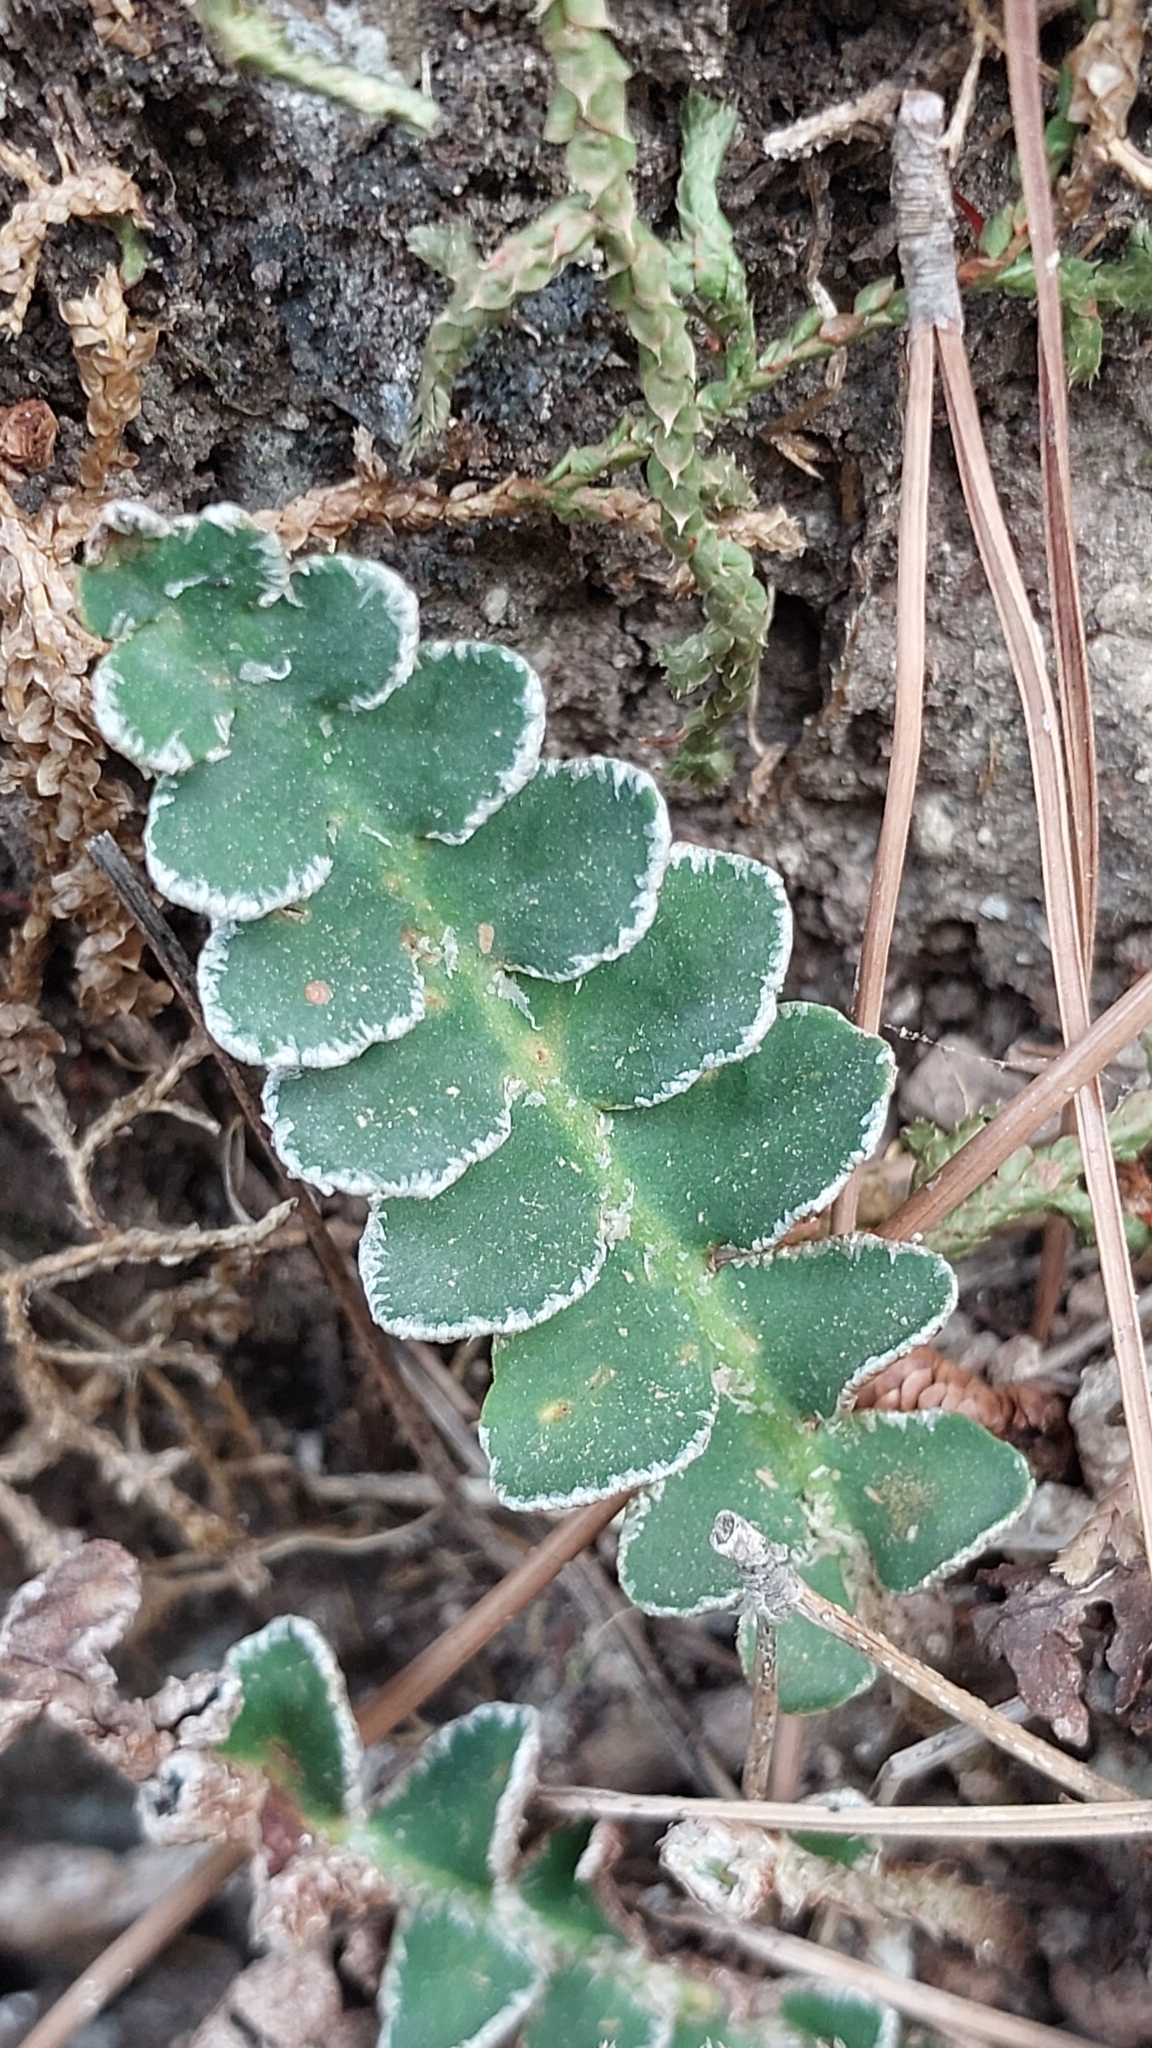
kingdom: Plantae
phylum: Tracheophyta
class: Polypodiopsida
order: Polypodiales
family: Aspleniaceae
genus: Asplenium
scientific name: Asplenium ceterach
